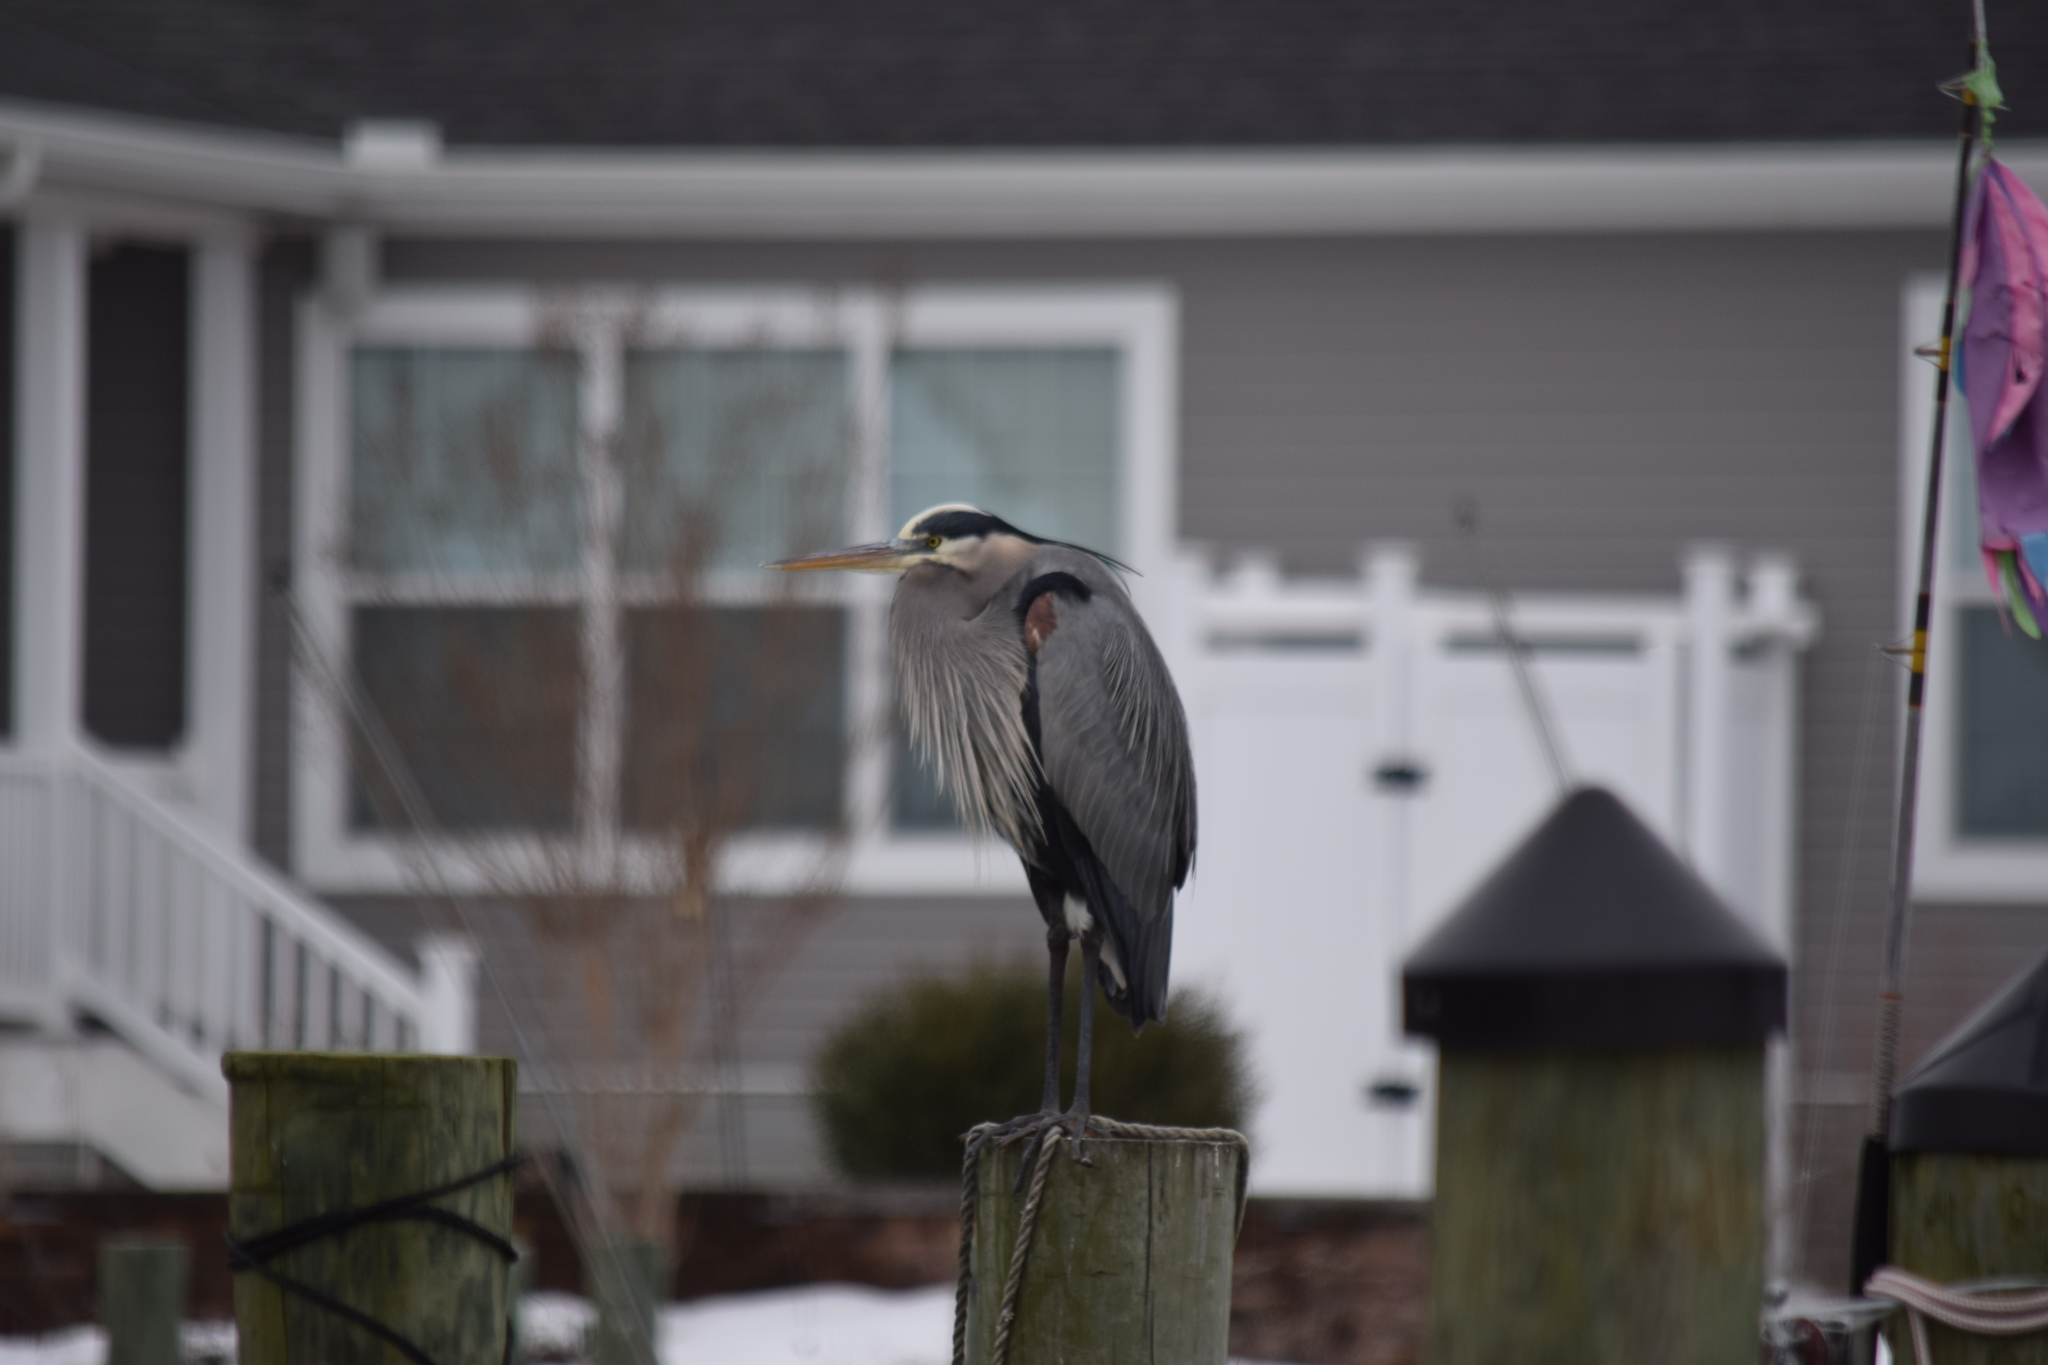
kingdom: Animalia
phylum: Chordata
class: Aves
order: Pelecaniformes
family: Ardeidae
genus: Ardea
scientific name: Ardea herodias
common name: Great blue heron
